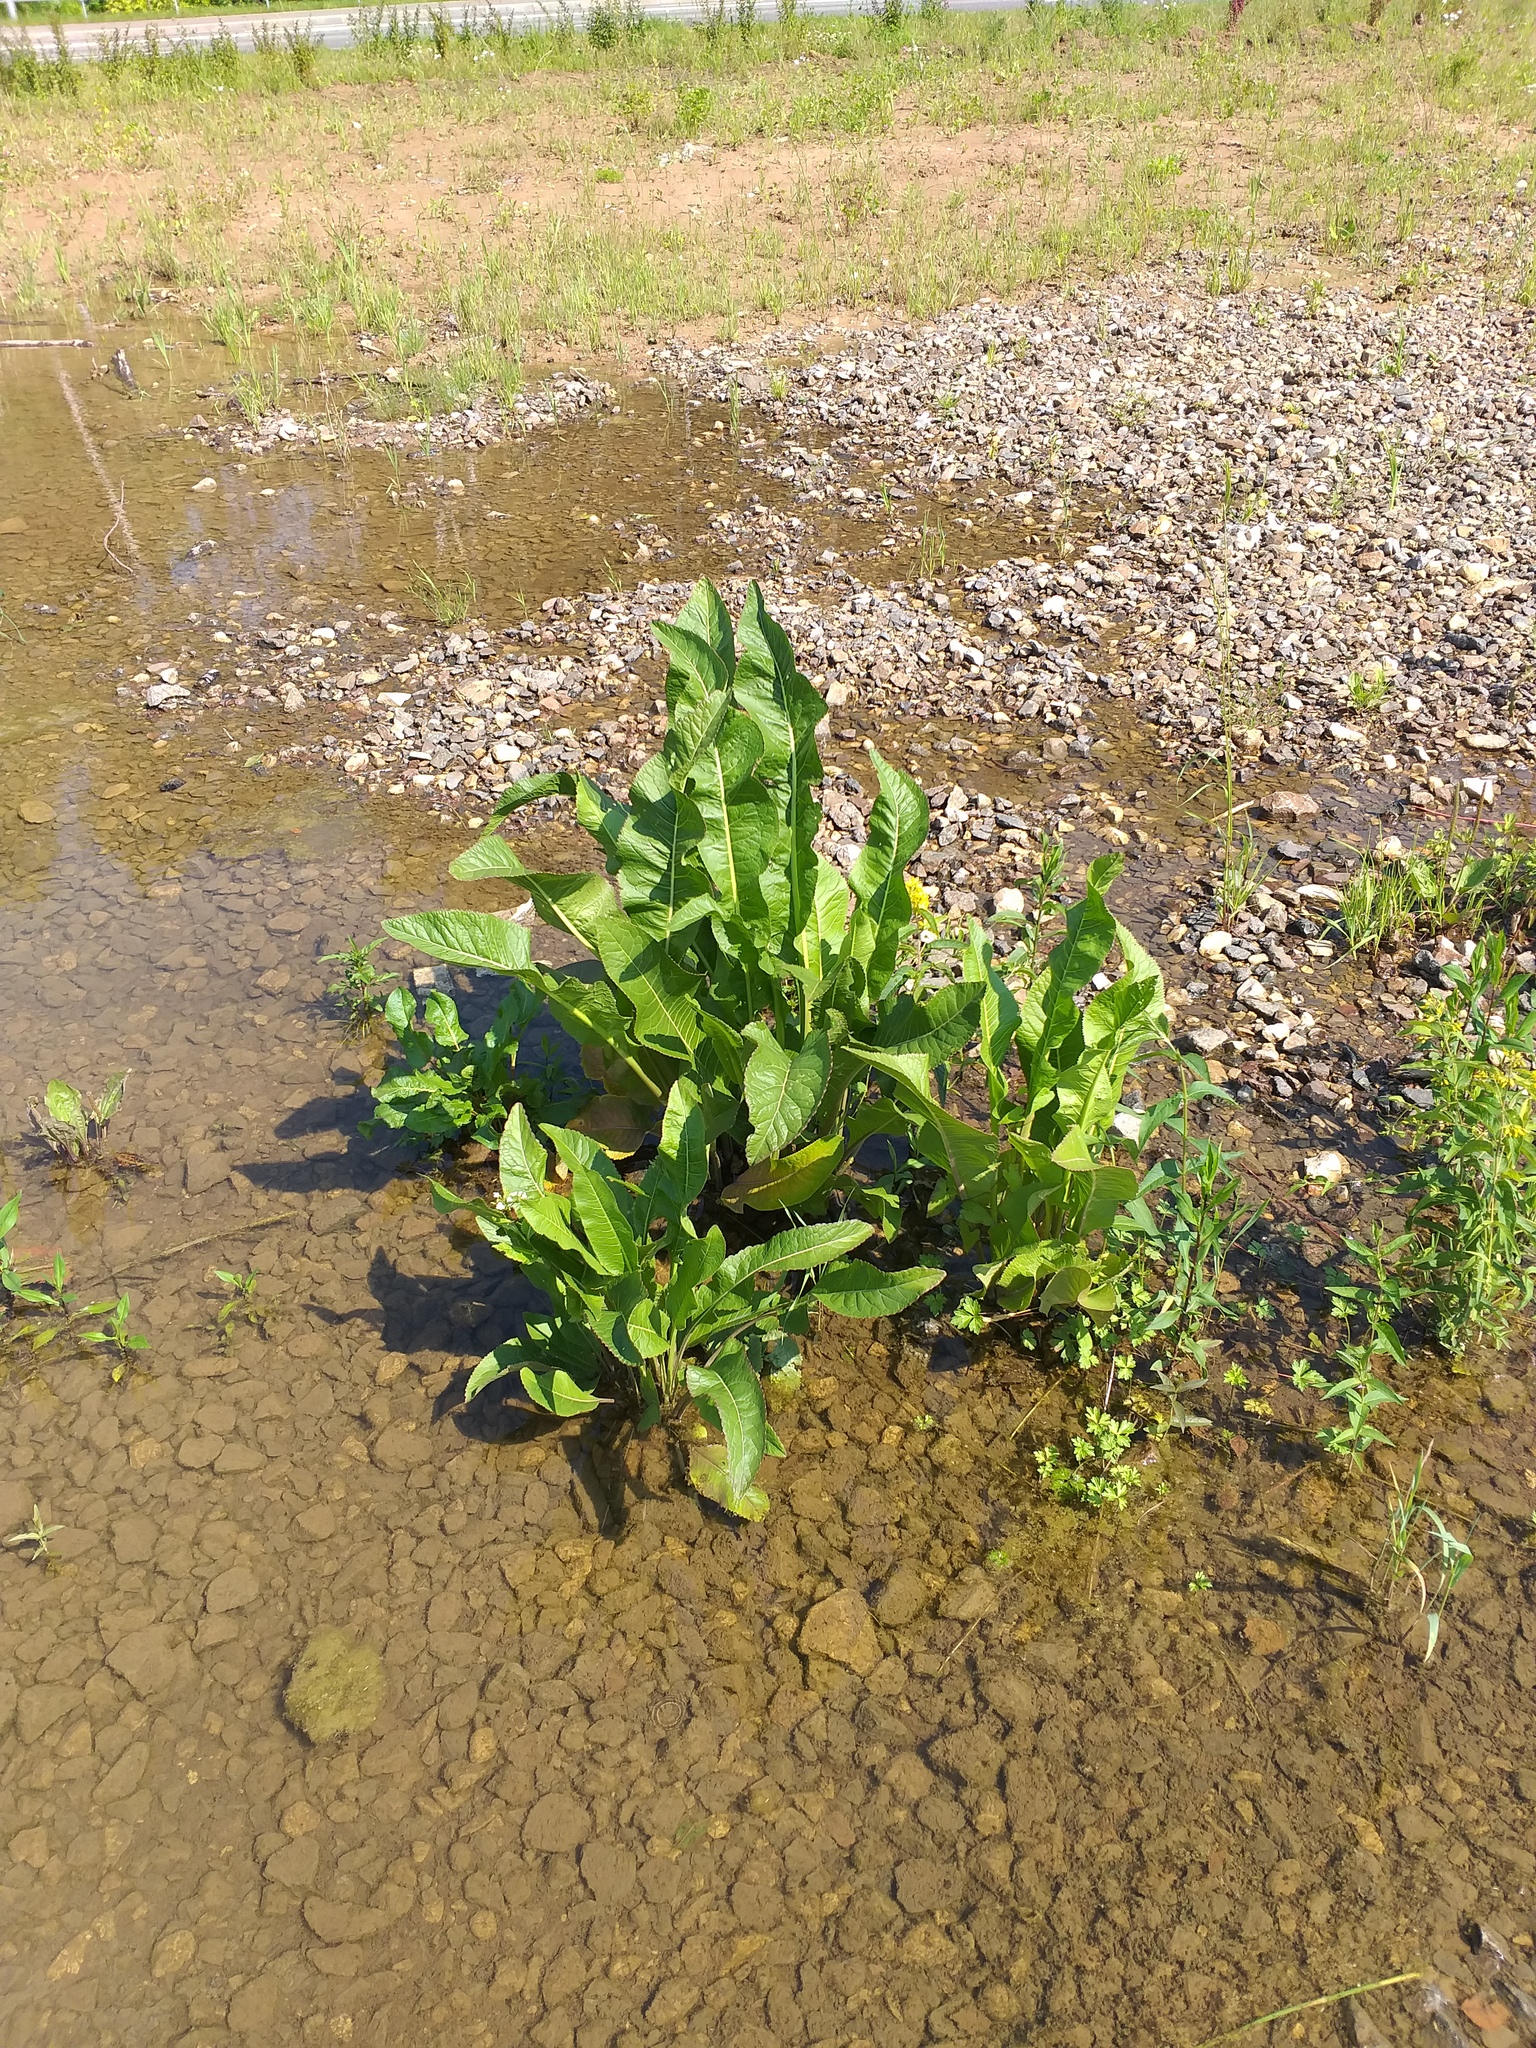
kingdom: Plantae
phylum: Tracheophyta
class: Magnoliopsida
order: Brassicales
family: Brassicaceae
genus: Armoracia
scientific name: Armoracia rusticana
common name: Horseradish
